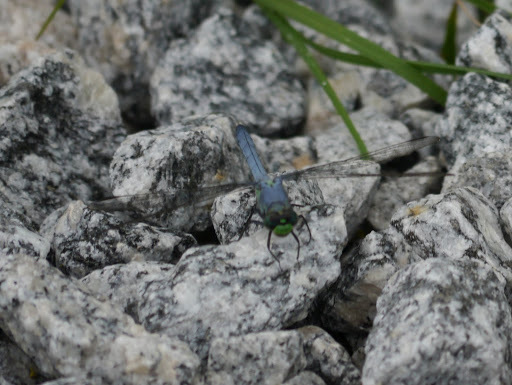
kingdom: Animalia
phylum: Arthropoda
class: Insecta
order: Odonata
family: Libellulidae
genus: Erythemis
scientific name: Erythemis simplicicollis
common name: Eastern pondhawk
